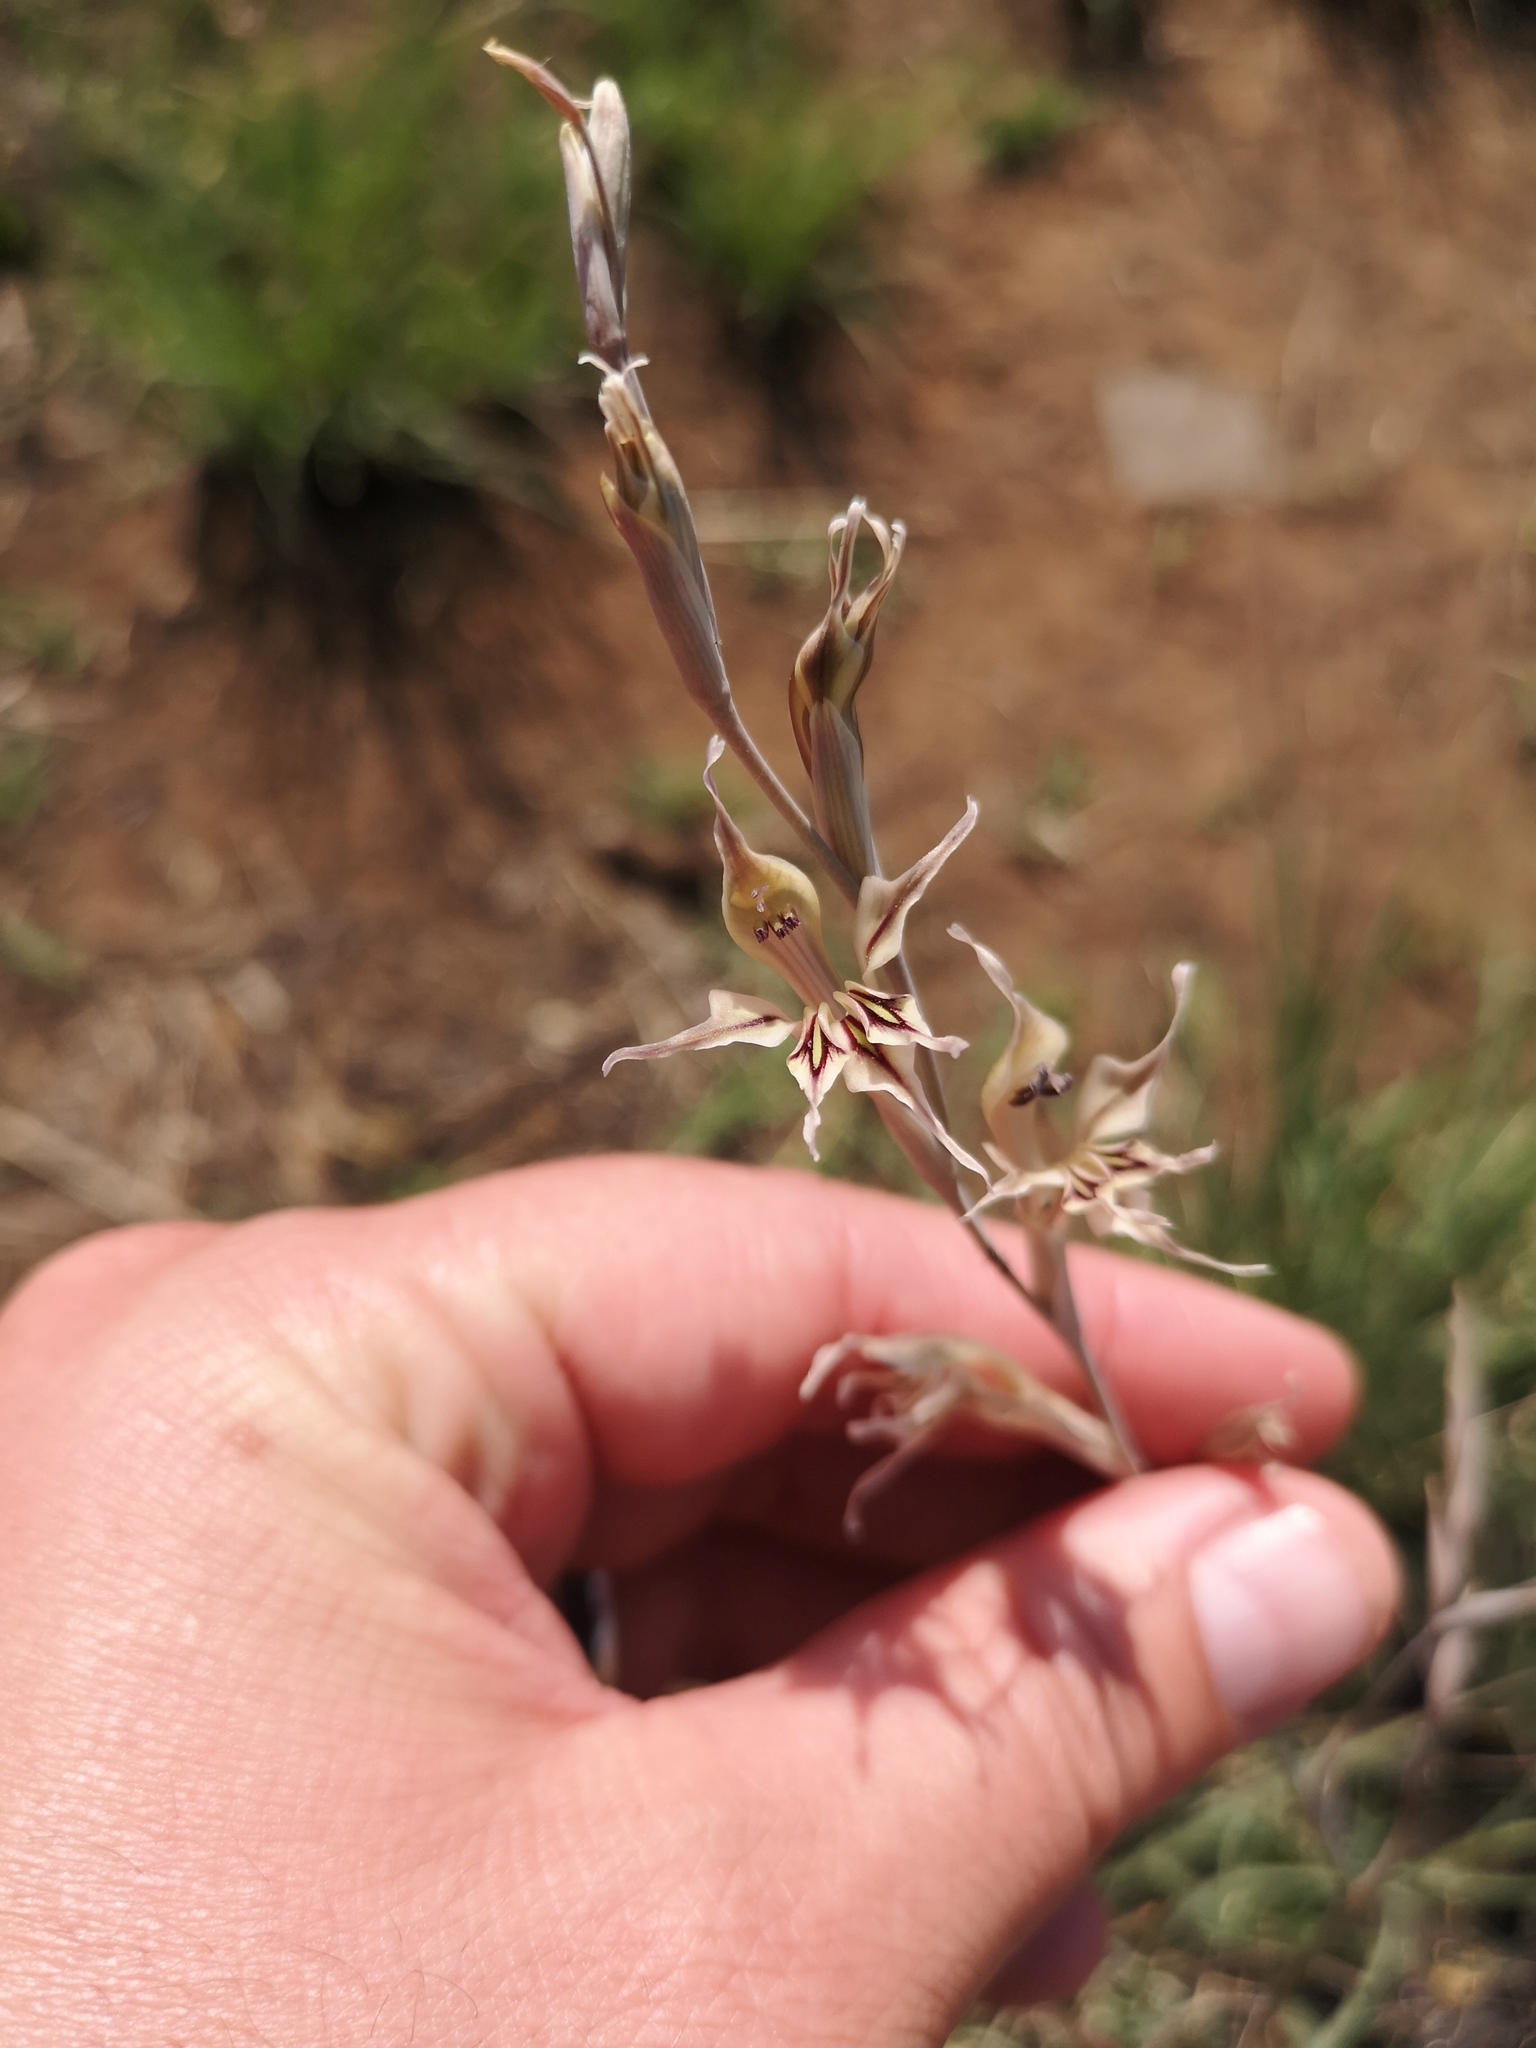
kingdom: Plantae
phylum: Tracheophyta
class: Liliopsida
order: Asparagales
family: Iridaceae
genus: Gladiolus
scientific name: Gladiolus permeabilis
